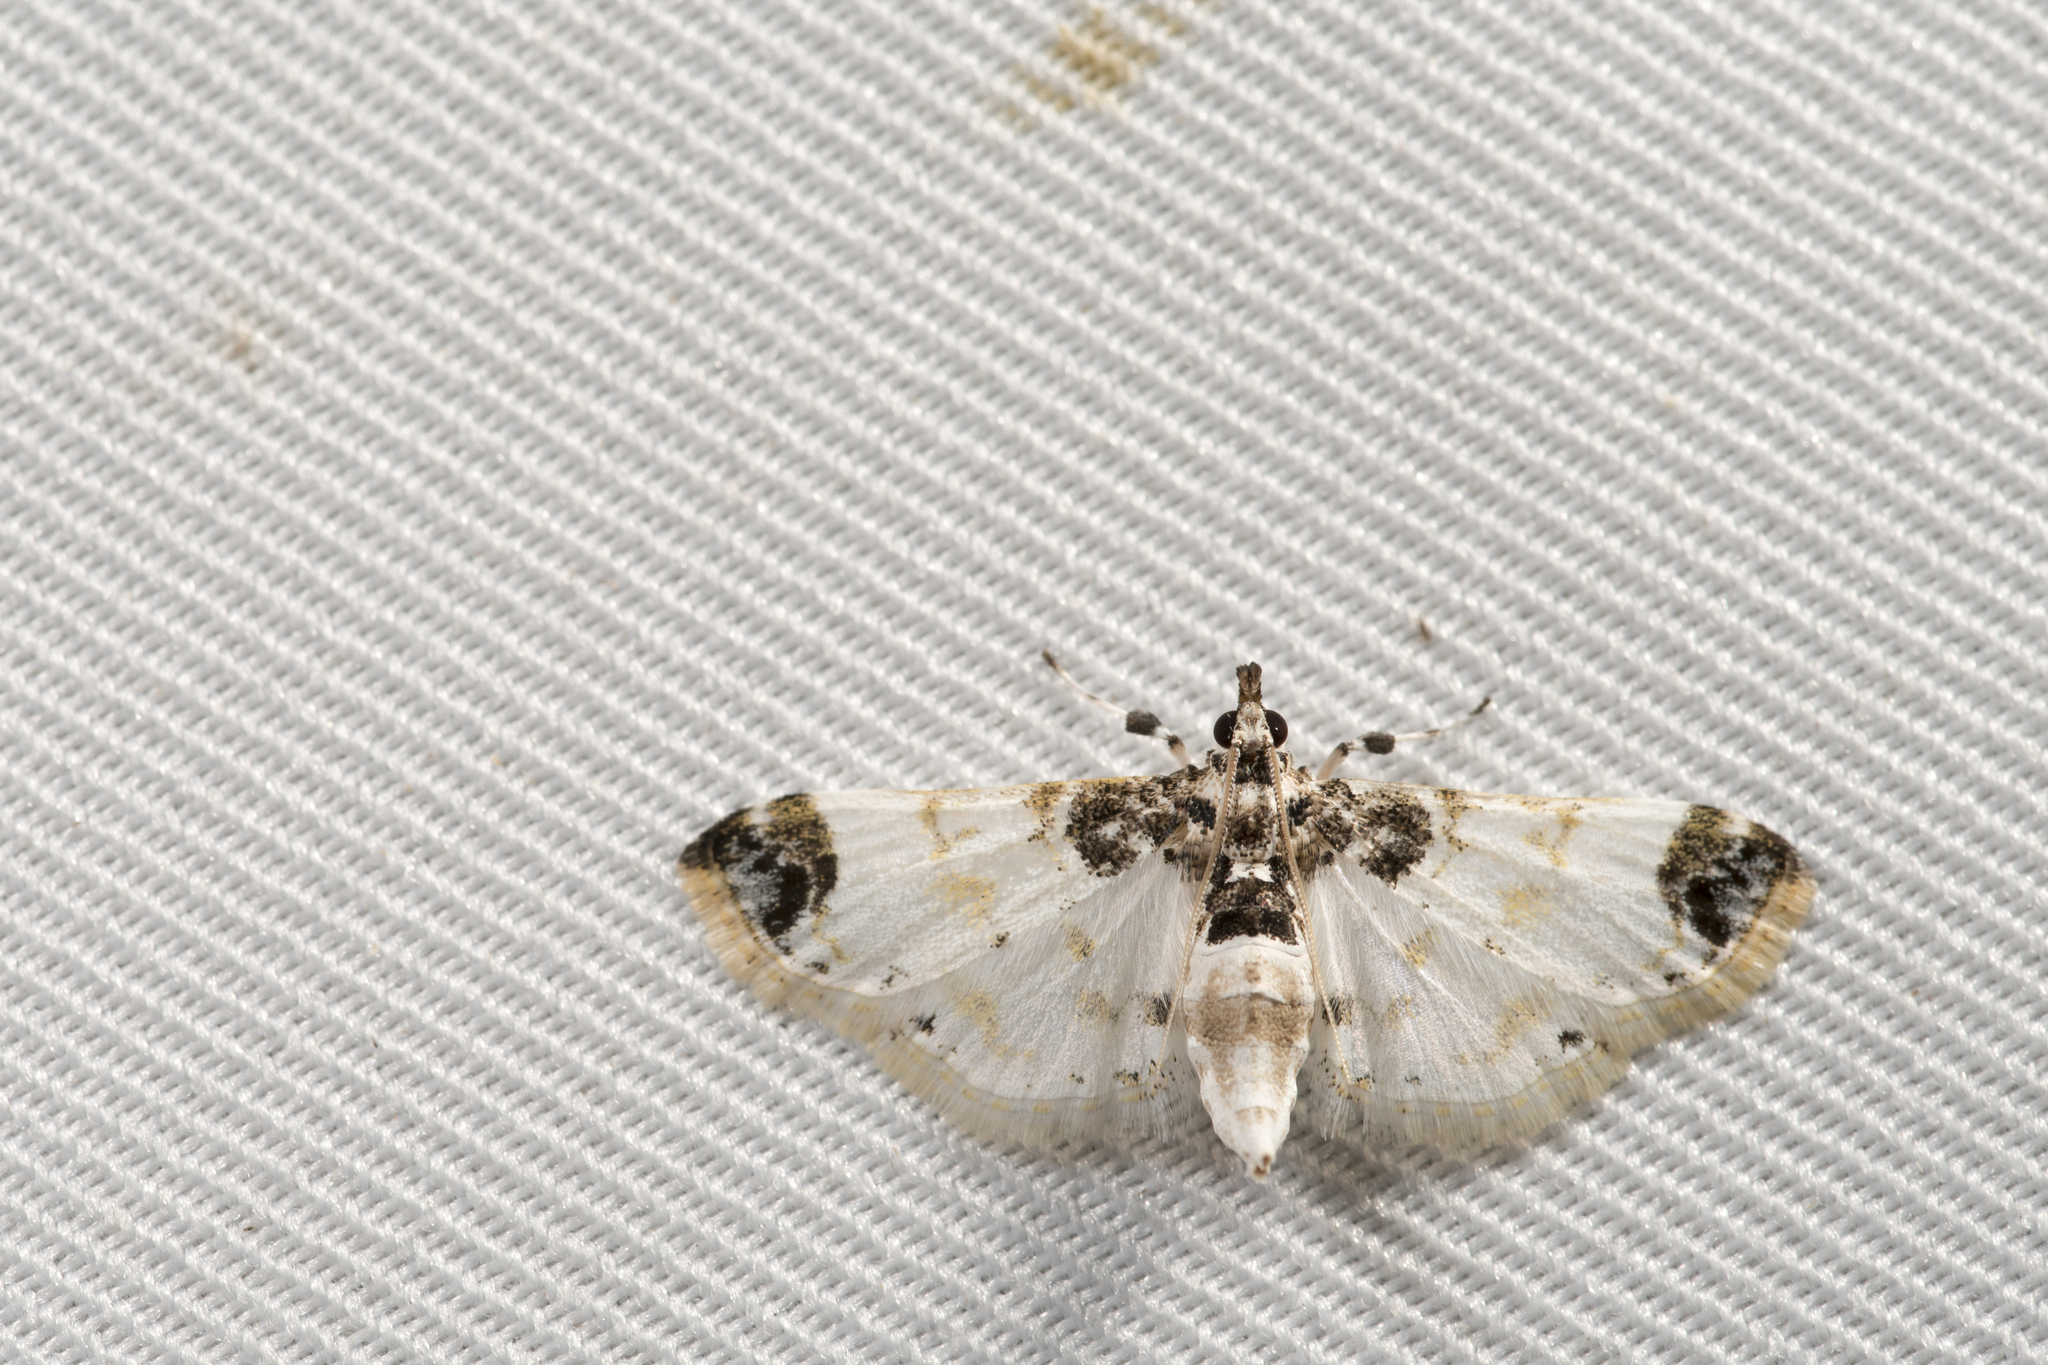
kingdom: Animalia
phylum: Arthropoda
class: Insecta
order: Lepidoptera
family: Crambidae
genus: Leucinodes
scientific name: Leucinodes apicalis
